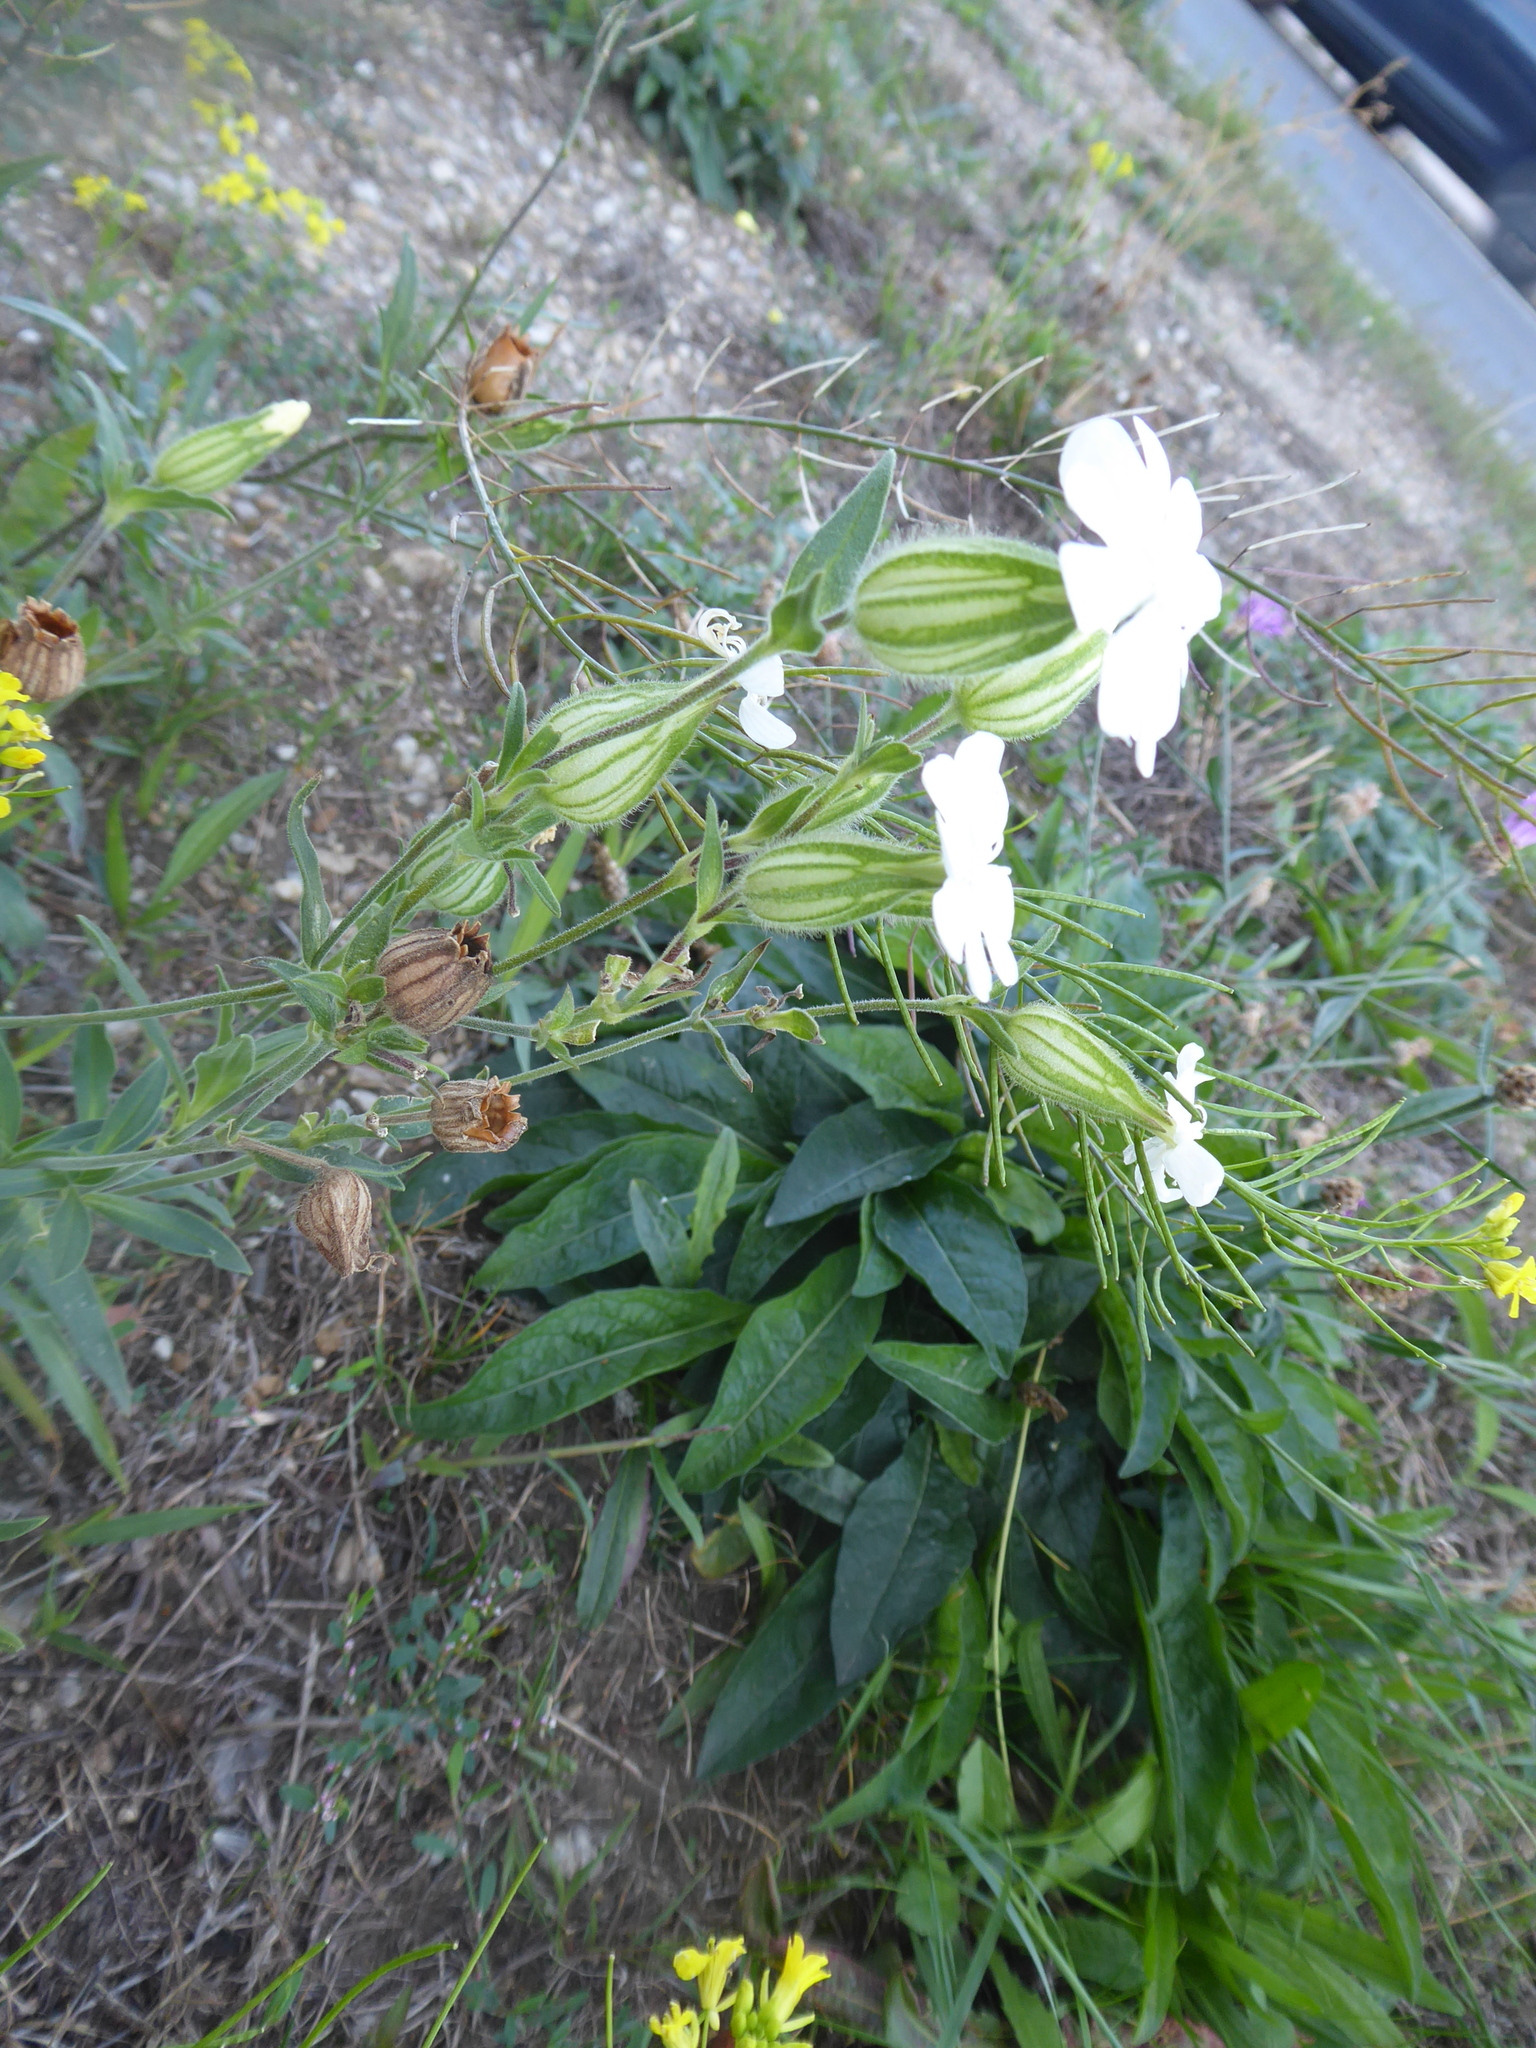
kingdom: Plantae
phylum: Tracheophyta
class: Magnoliopsida
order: Caryophyllales
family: Caryophyllaceae
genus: Silene
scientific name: Silene latifolia
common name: White campion
